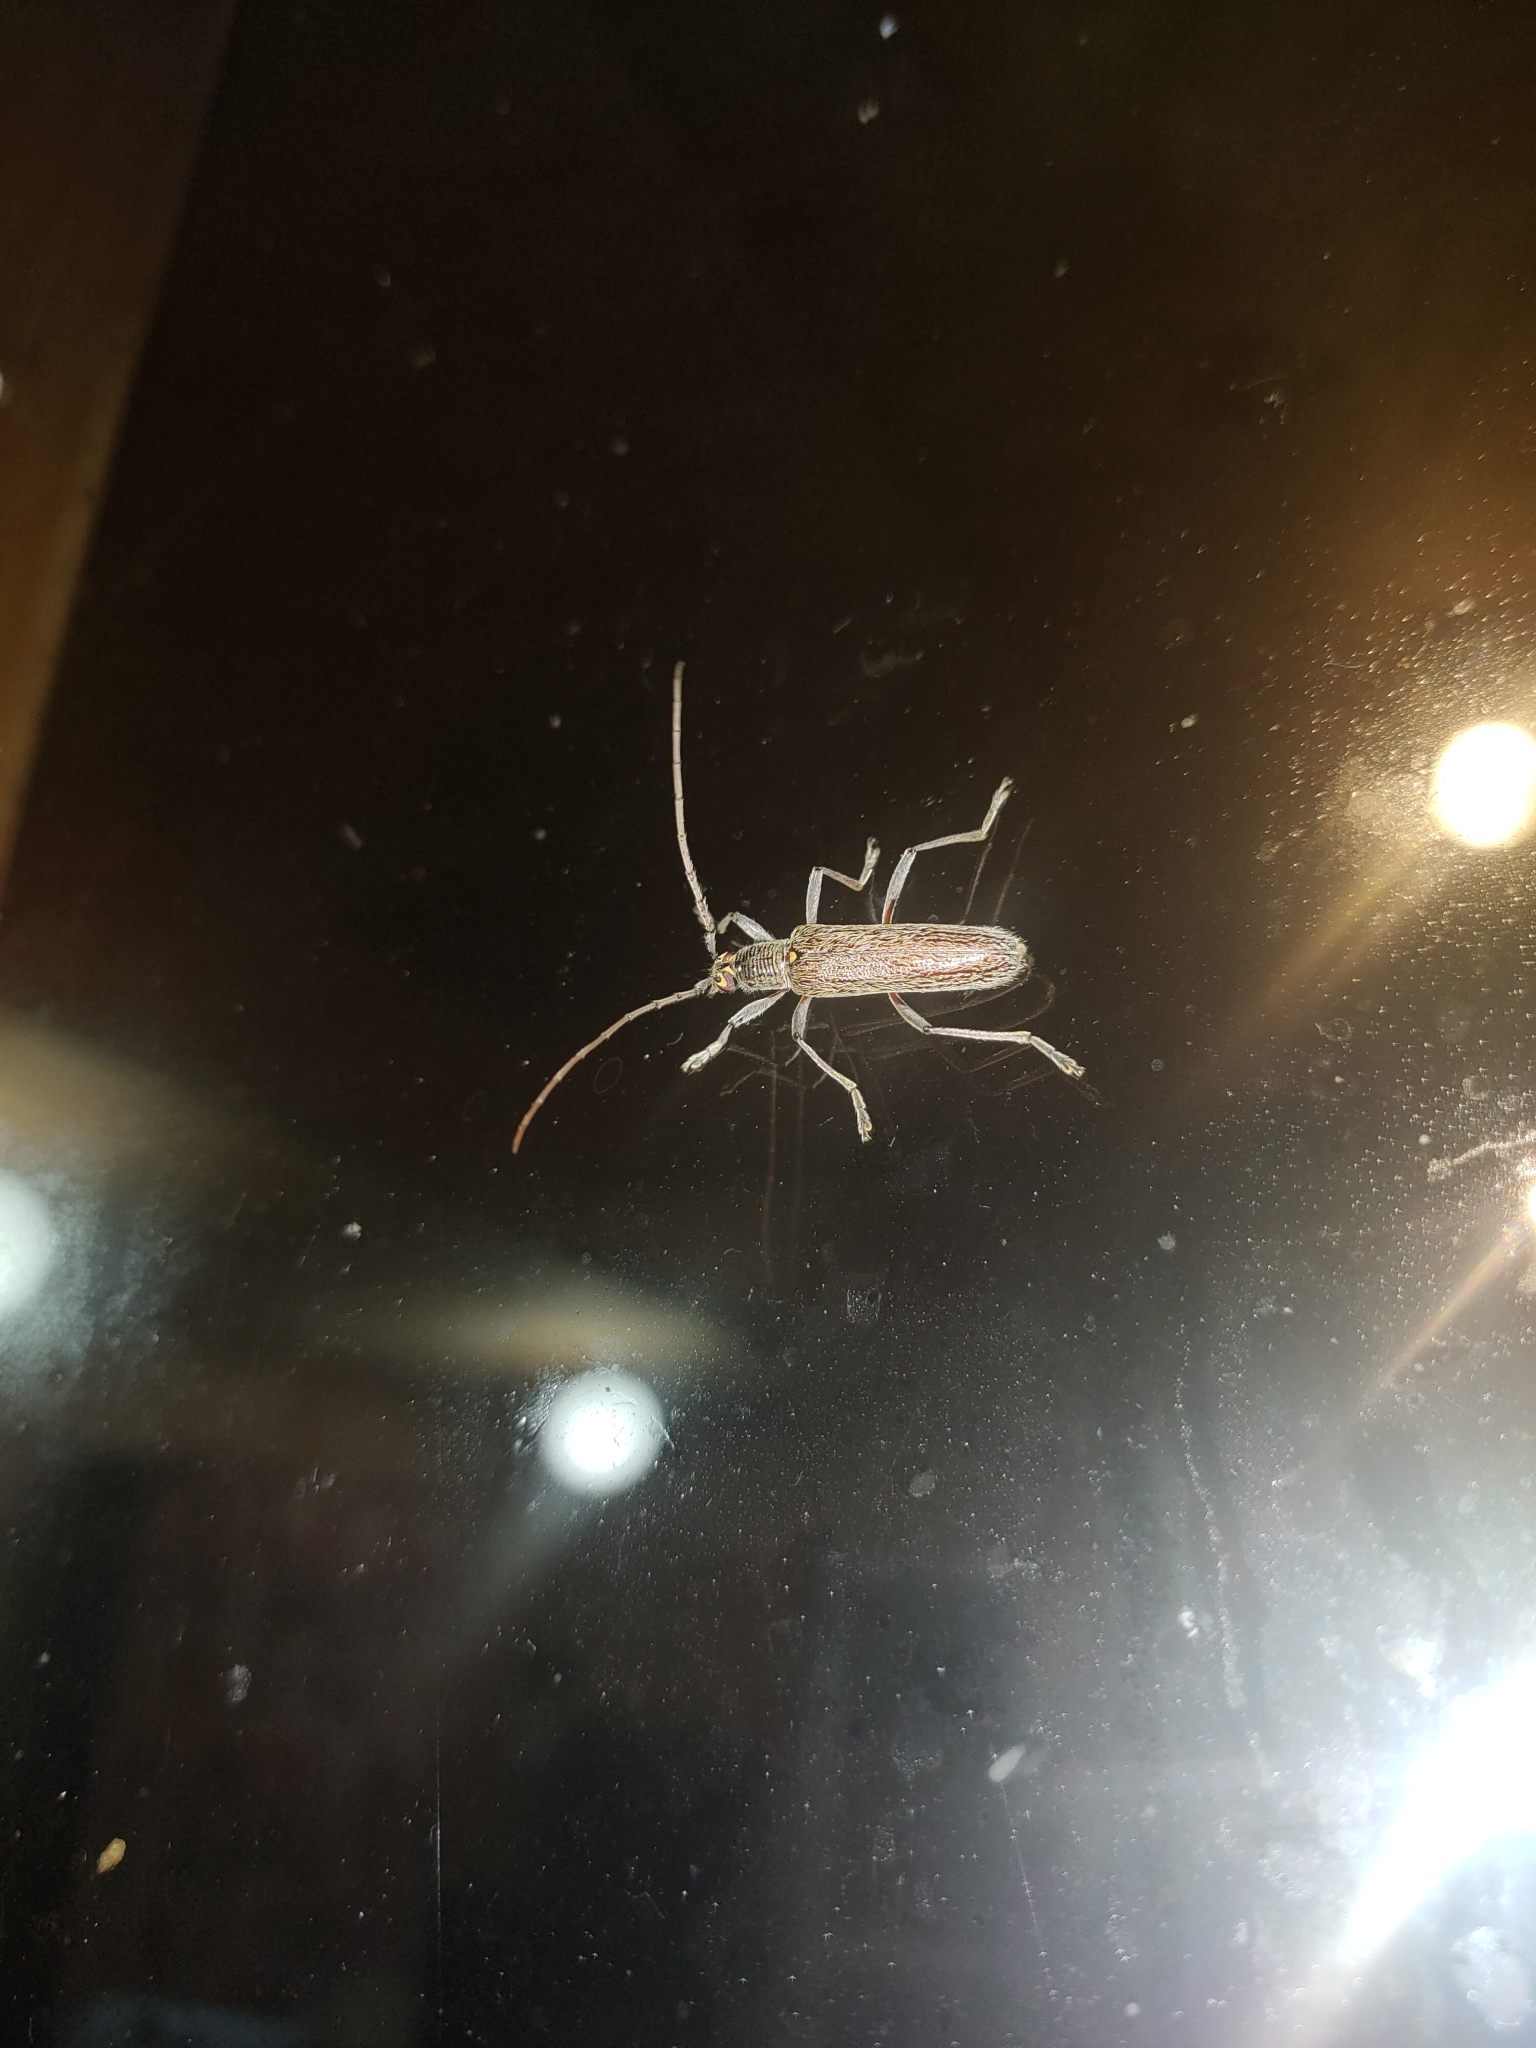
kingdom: Animalia
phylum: Arthropoda
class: Insecta
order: Coleoptera
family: Cerambycidae
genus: Oemona
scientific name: Oemona hirta
